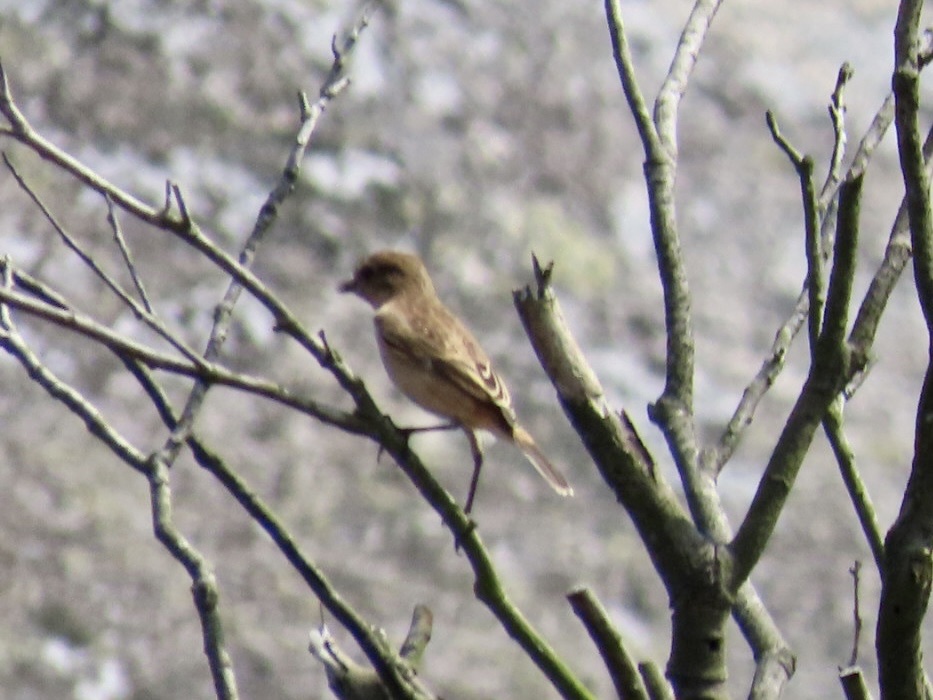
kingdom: Animalia
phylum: Chordata
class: Aves
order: Passeriformes
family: Muscicapidae
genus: Saxicola
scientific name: Saxicola stejnegeri
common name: Stejneger's stonechat
